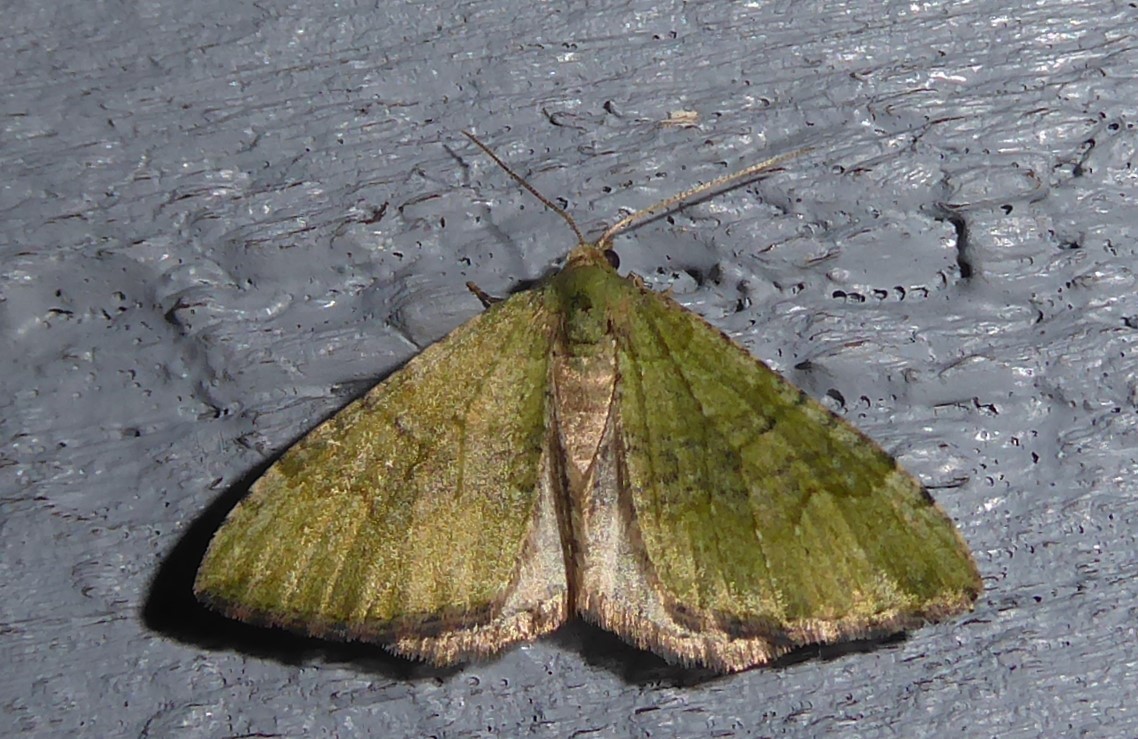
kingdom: Animalia
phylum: Arthropoda
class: Insecta
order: Lepidoptera
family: Geometridae
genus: Epyaxa
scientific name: Epyaxa rosearia
